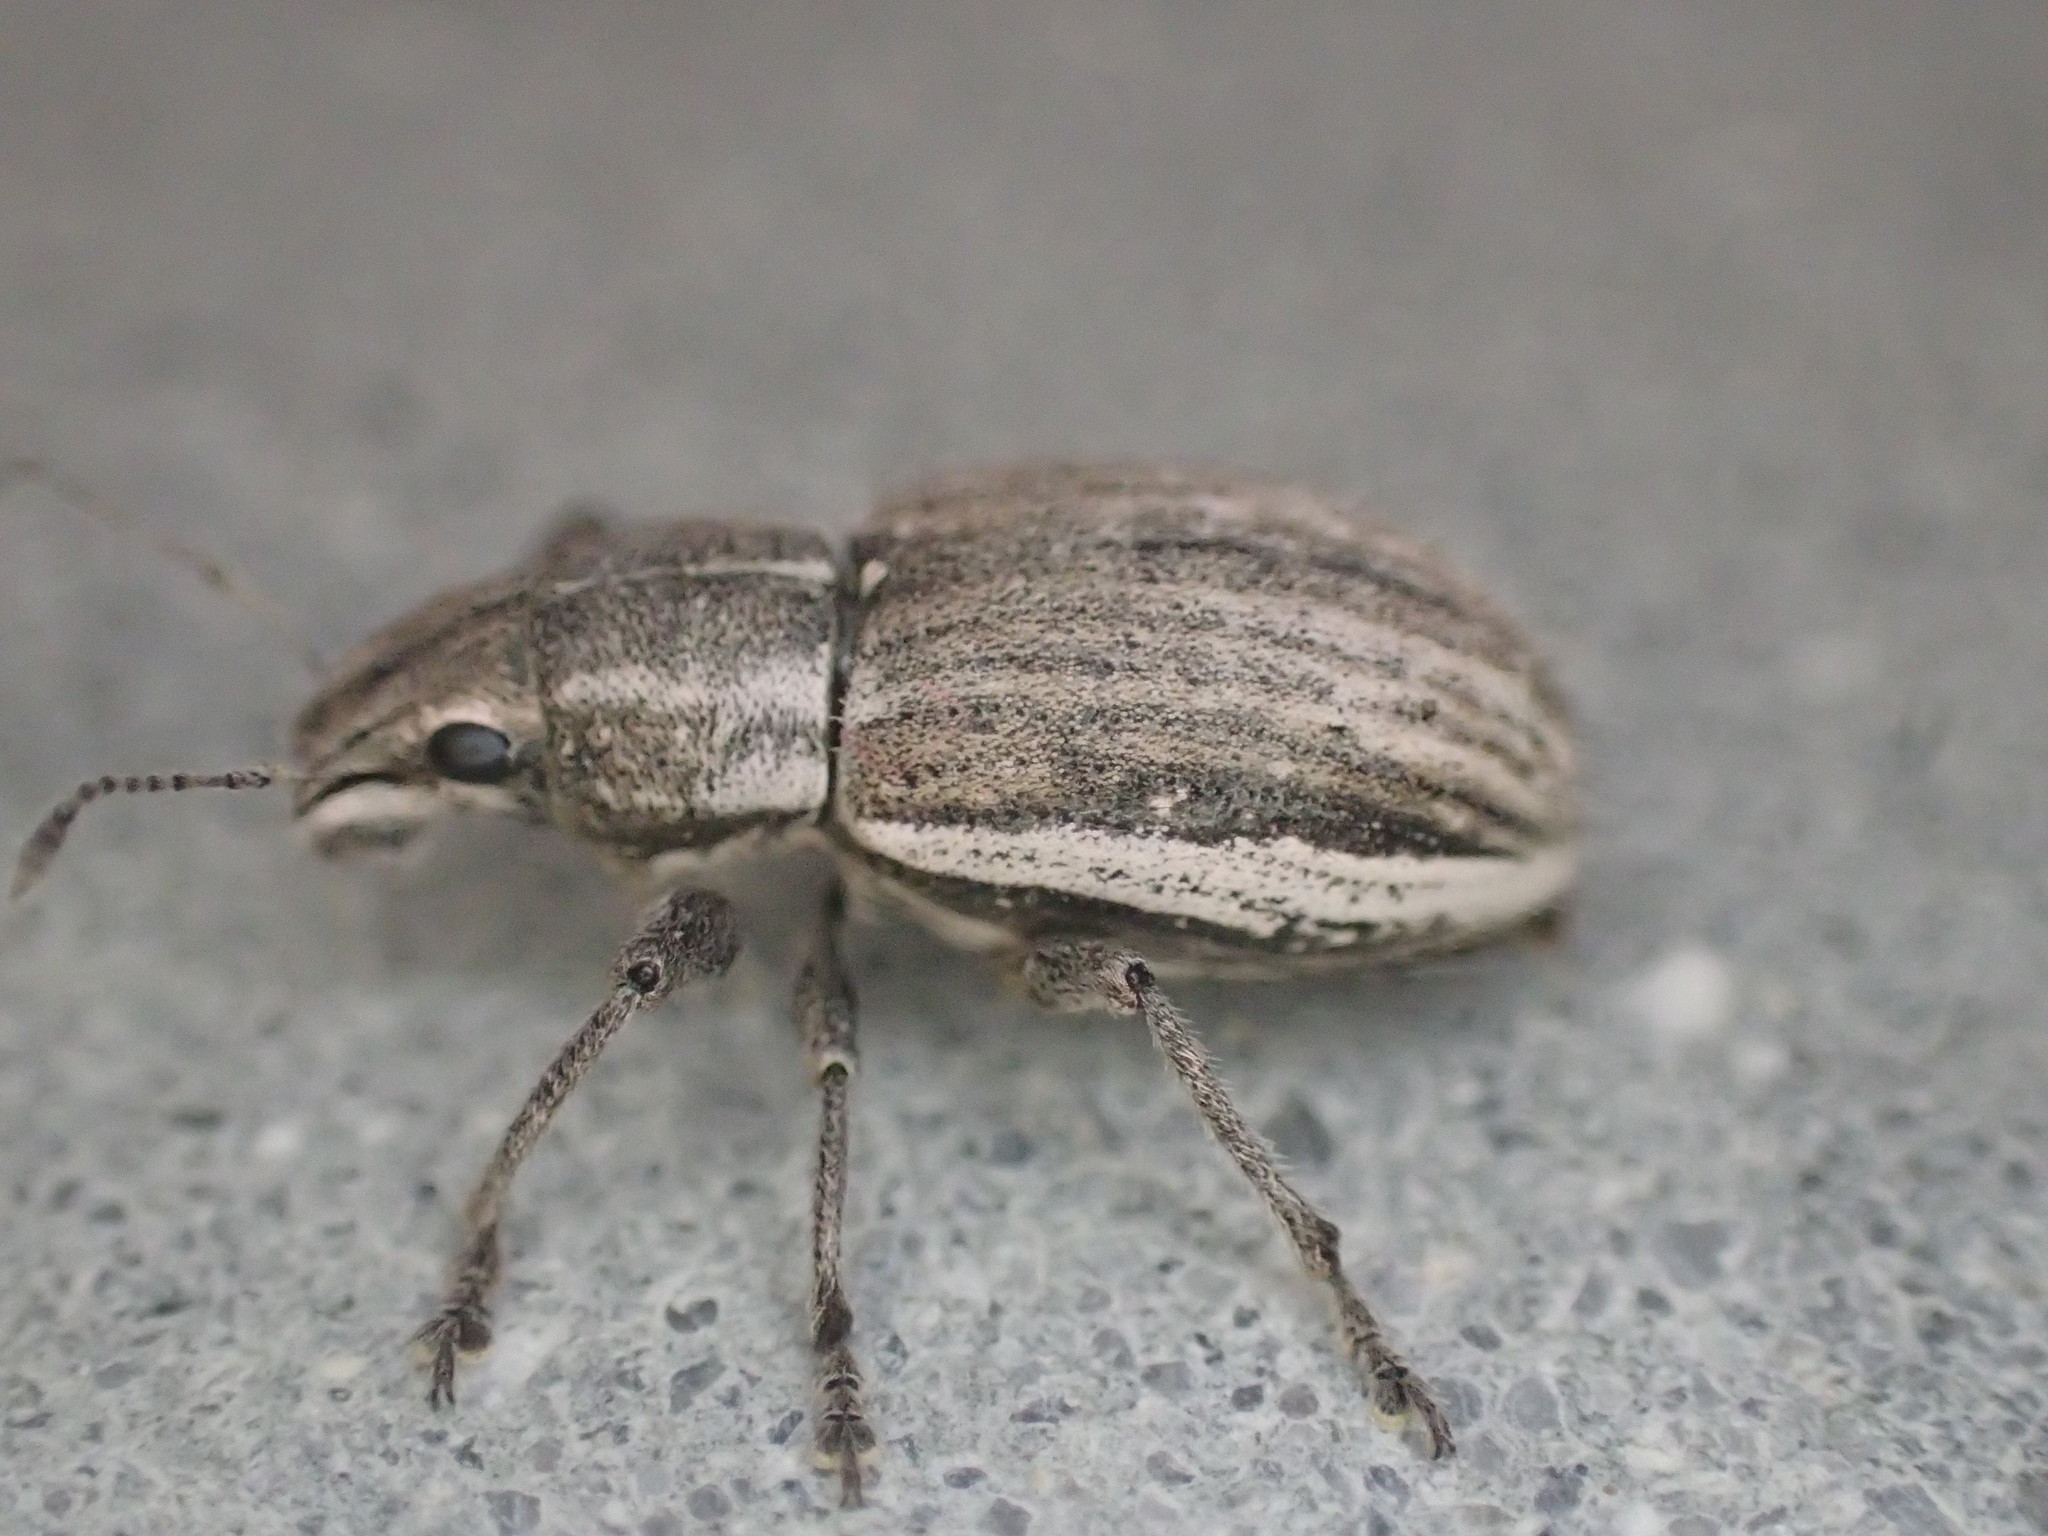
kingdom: Animalia
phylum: Arthropoda
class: Insecta
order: Coleoptera
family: Curculionidae
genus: Naupactus
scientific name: Naupactus leucoloma
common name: Whitefringed beetle
